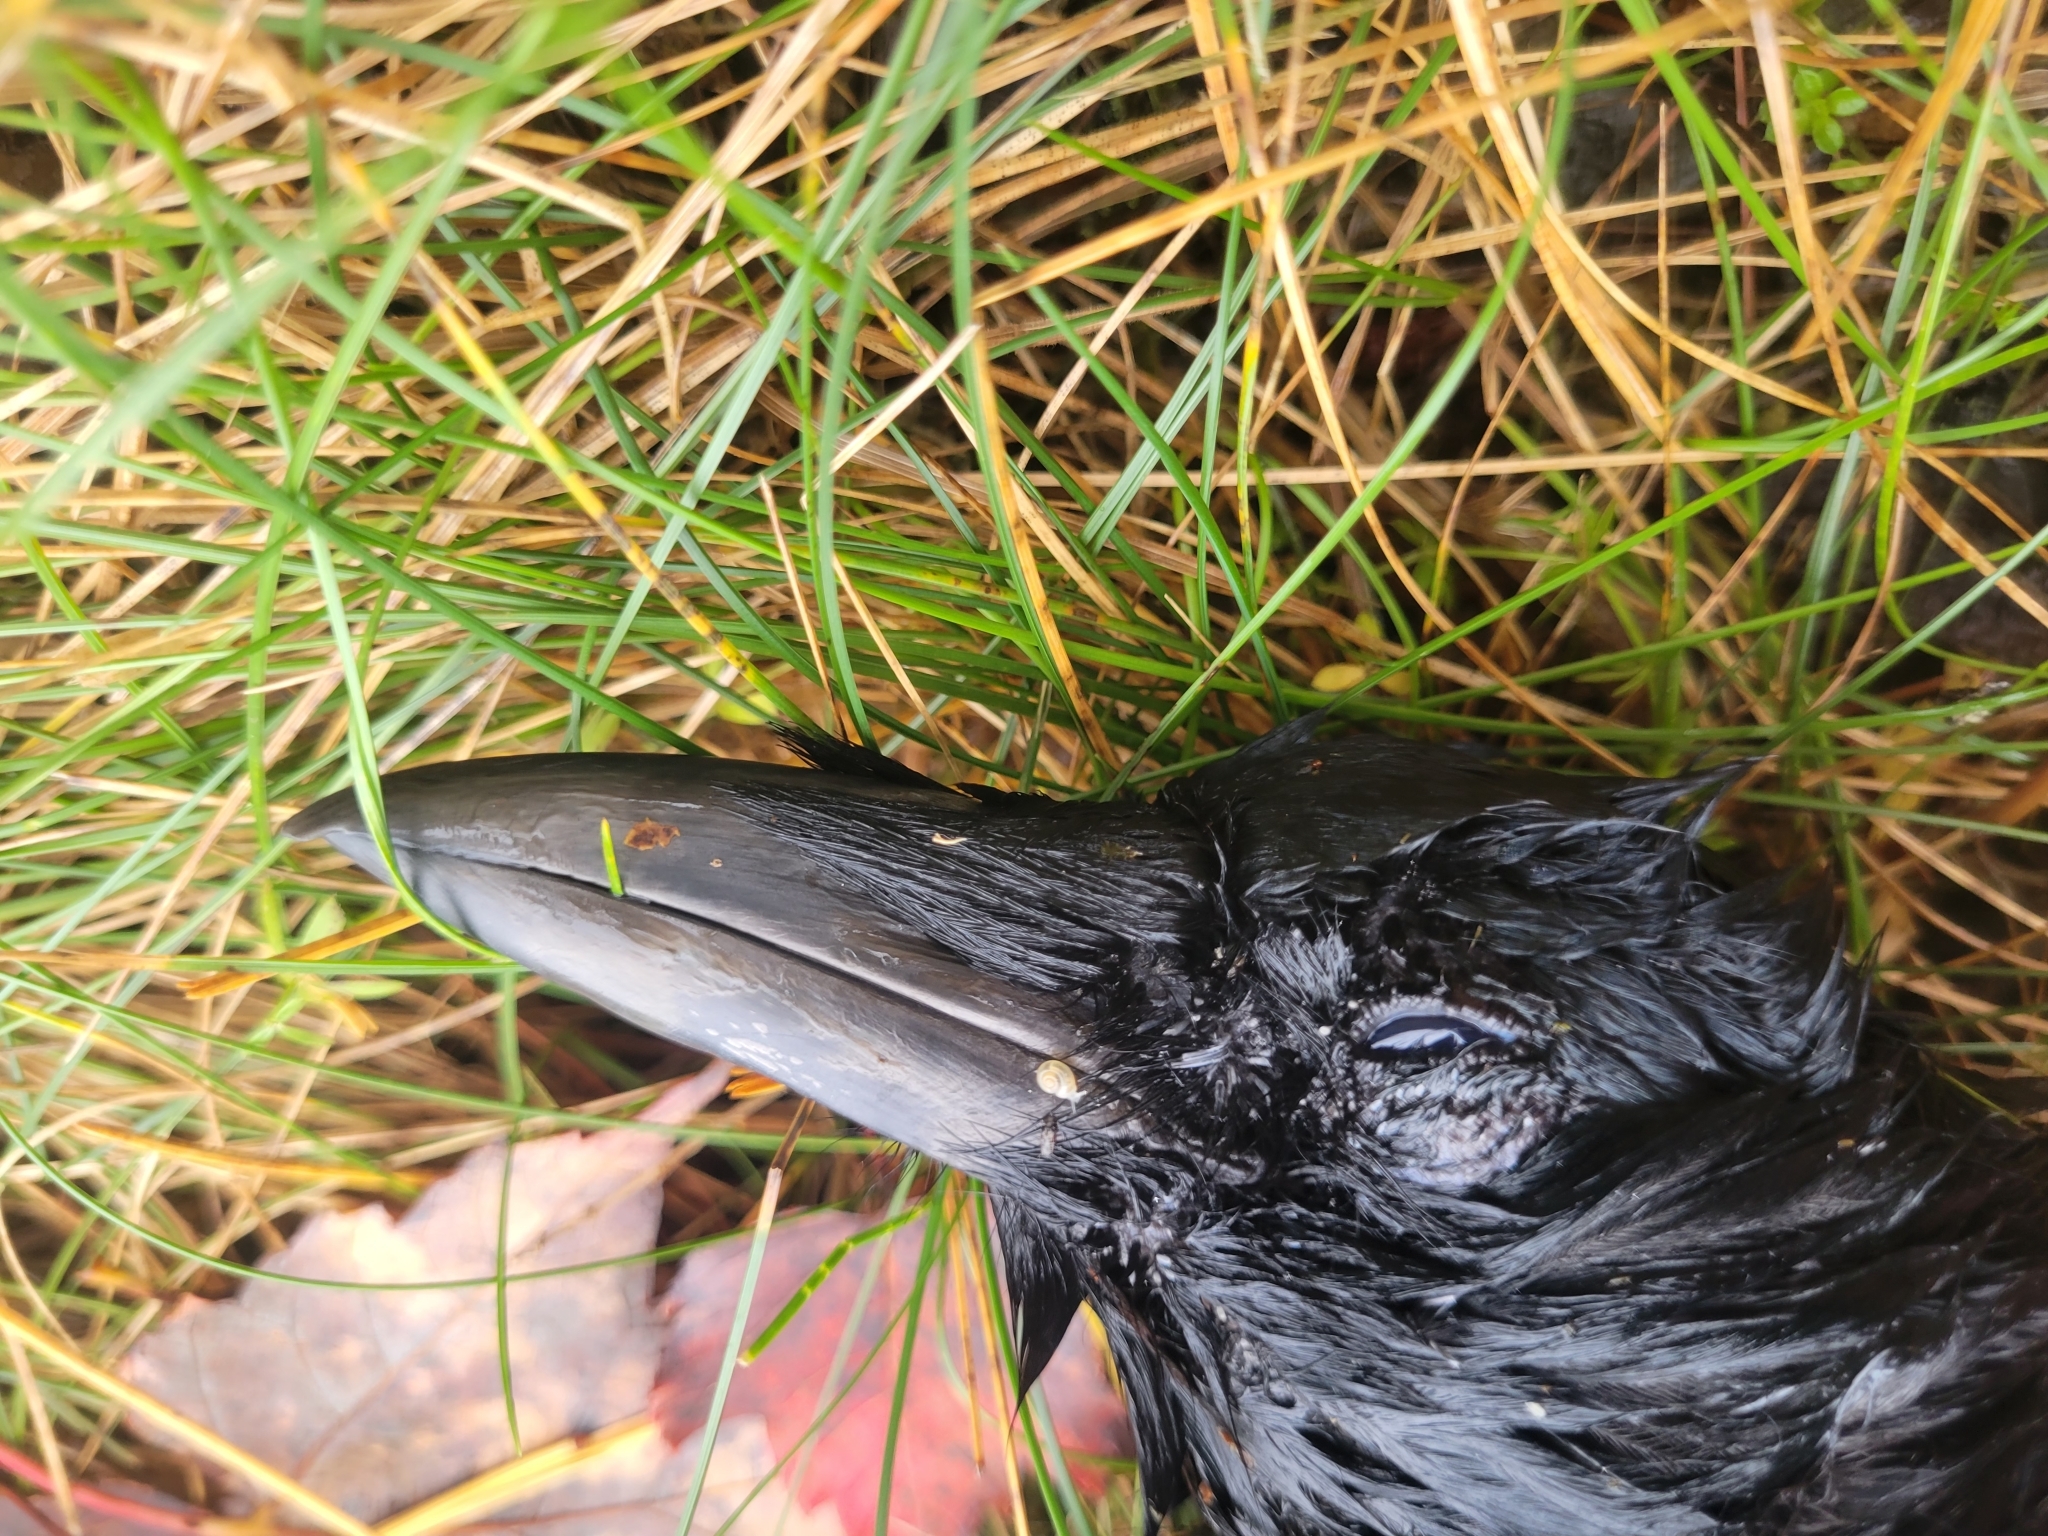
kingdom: Animalia
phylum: Chordata
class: Aves
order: Passeriformes
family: Corvidae
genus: Corvus
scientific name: Corvus brachyrhynchos
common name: American crow
